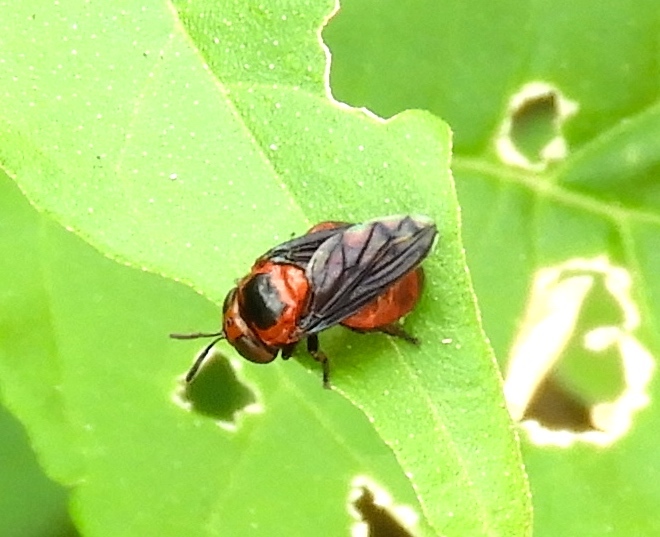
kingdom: Animalia
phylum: Arthropoda
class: Insecta
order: Diptera
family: Syrphidae
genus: Menidon
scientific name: Menidon falcatus
